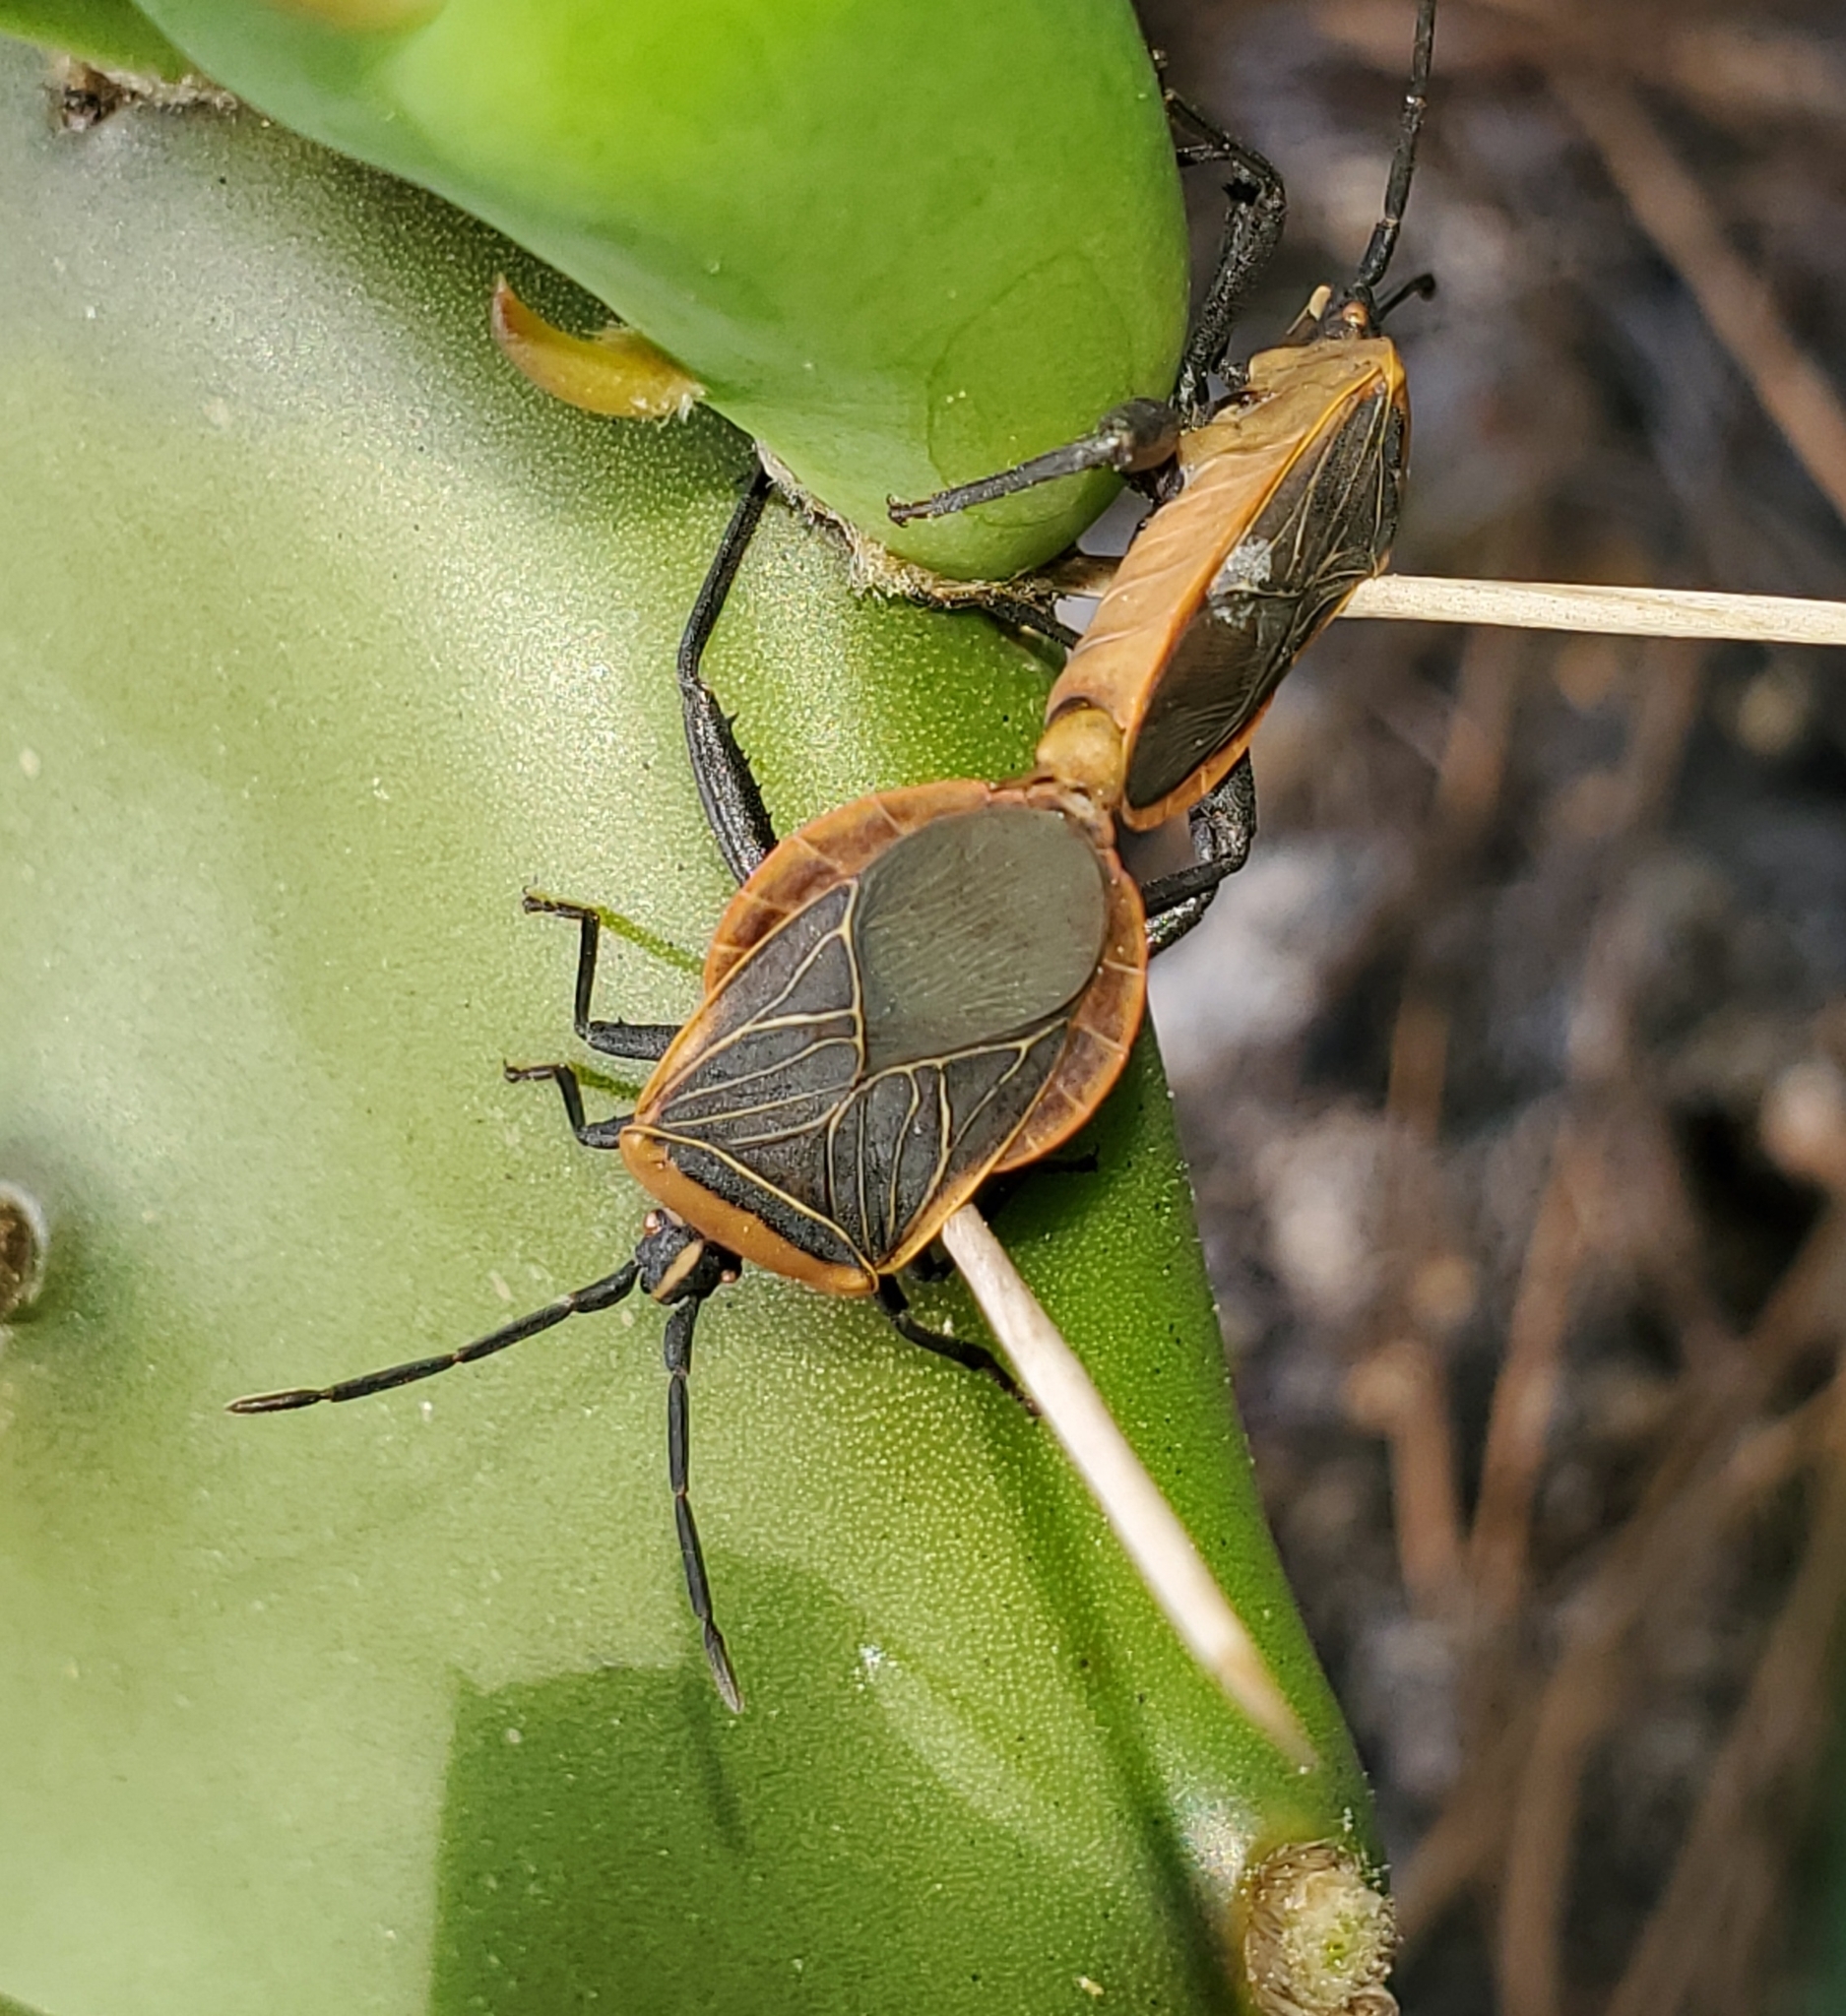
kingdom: Animalia
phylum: Arthropoda
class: Insecta
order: Hemiptera
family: Coreidae
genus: Chelinidea
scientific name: Chelinidea vittiger
